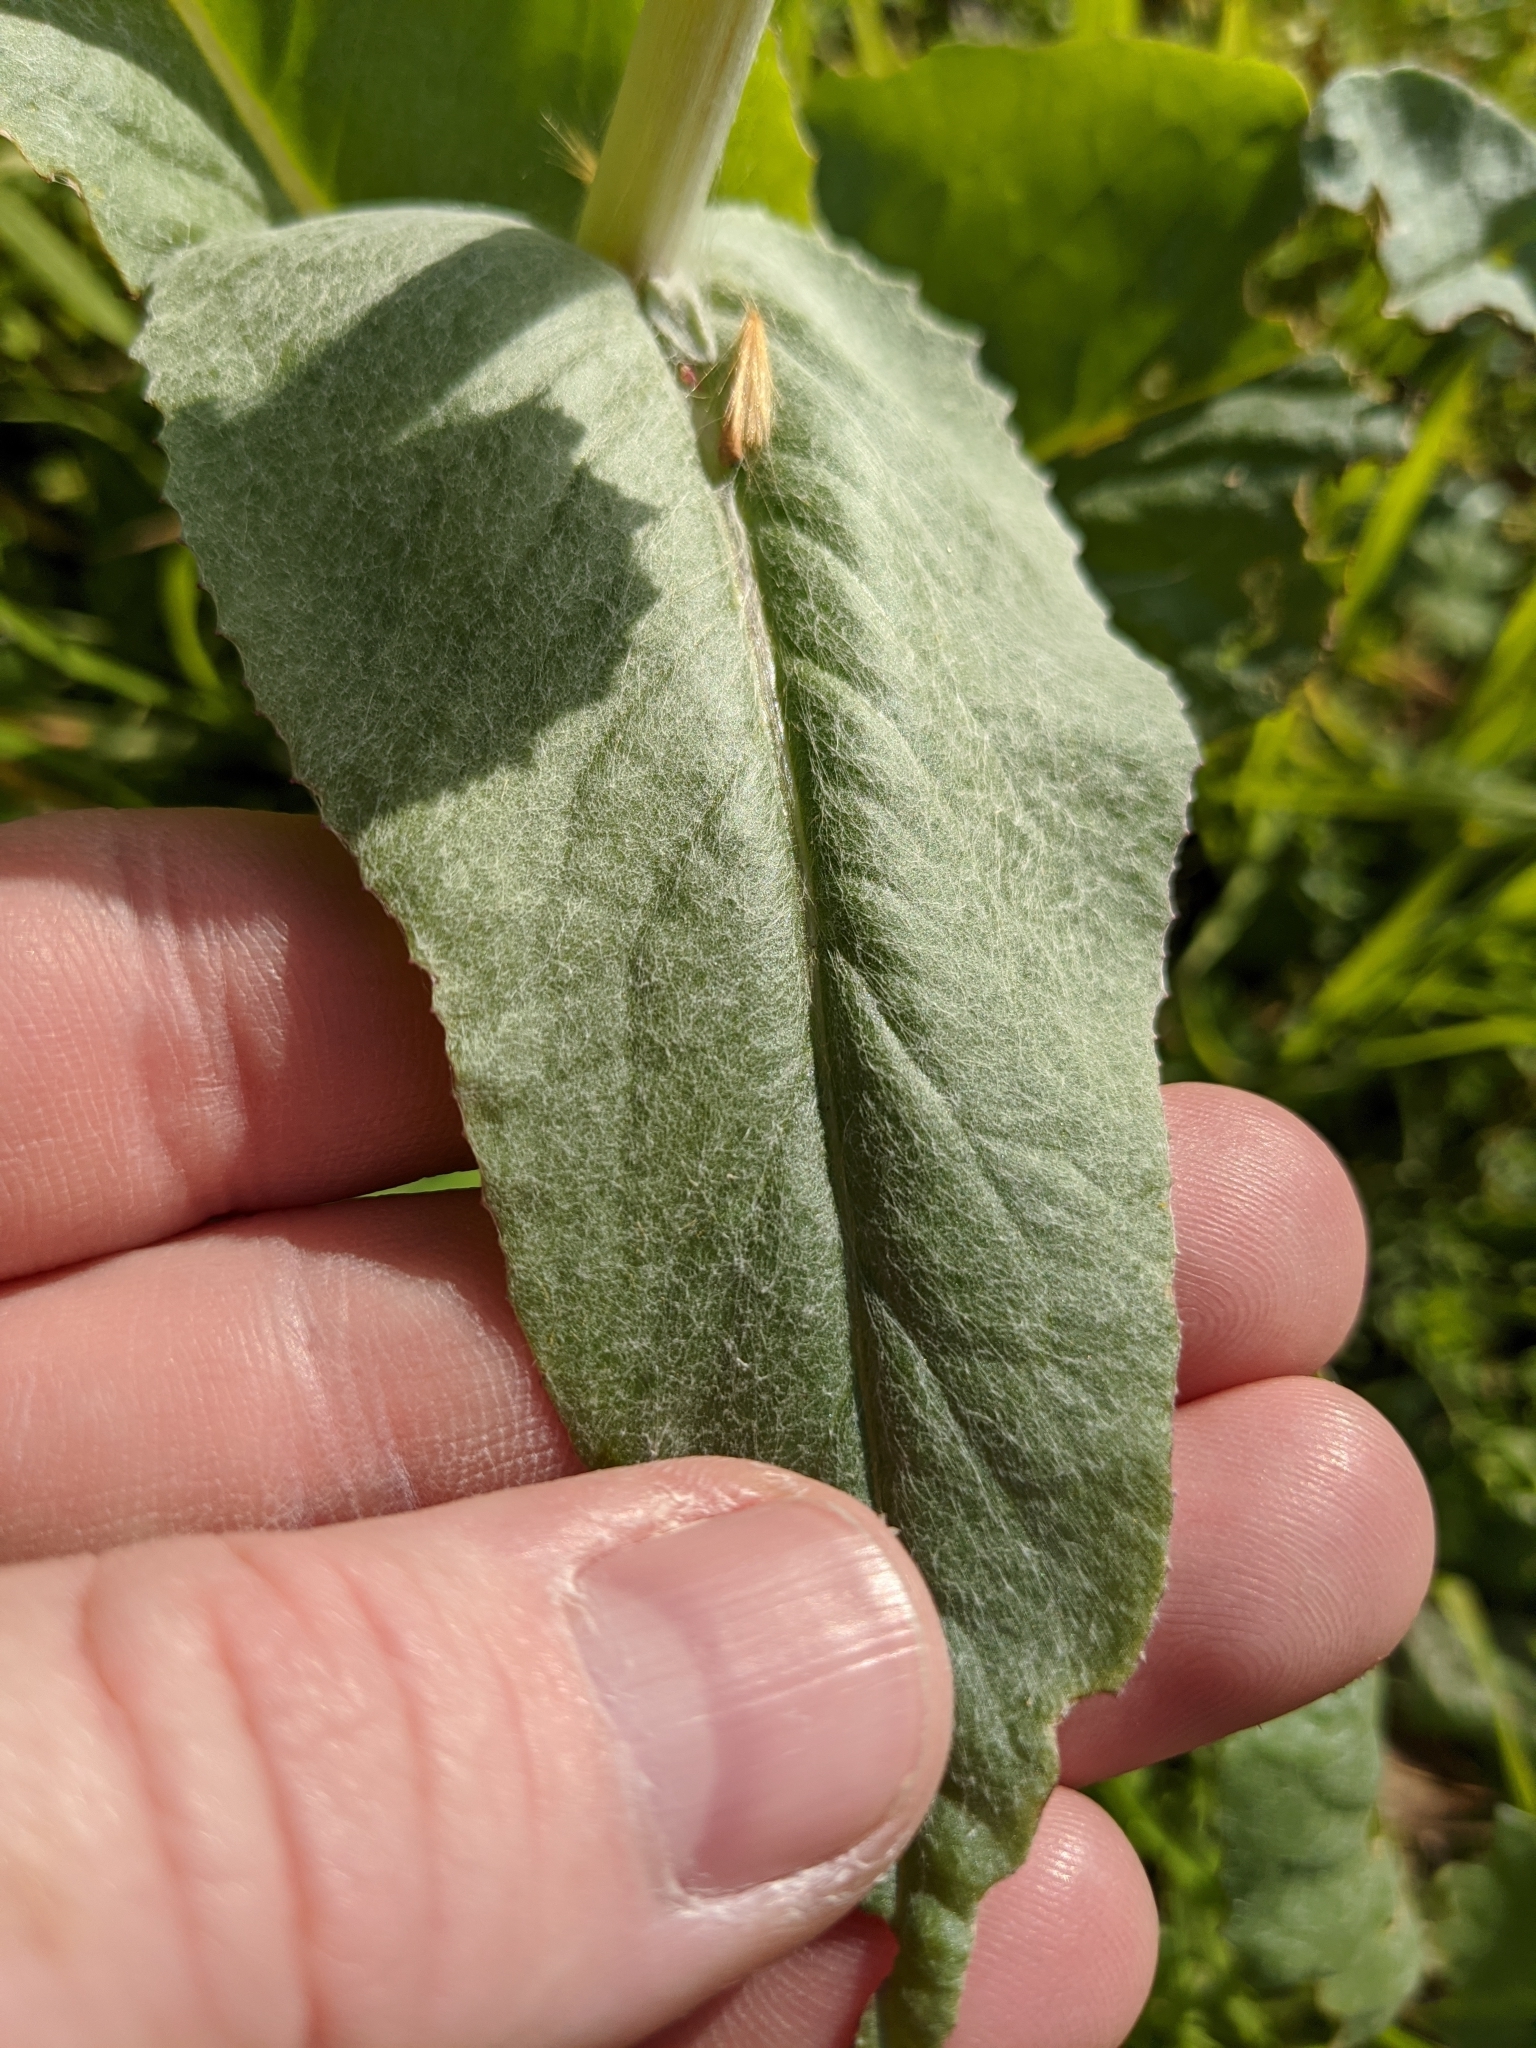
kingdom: Plantae
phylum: Tracheophyta
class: Magnoliopsida
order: Asterales
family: Asteraceae
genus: Senecio
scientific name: Senecio ampullaceus
